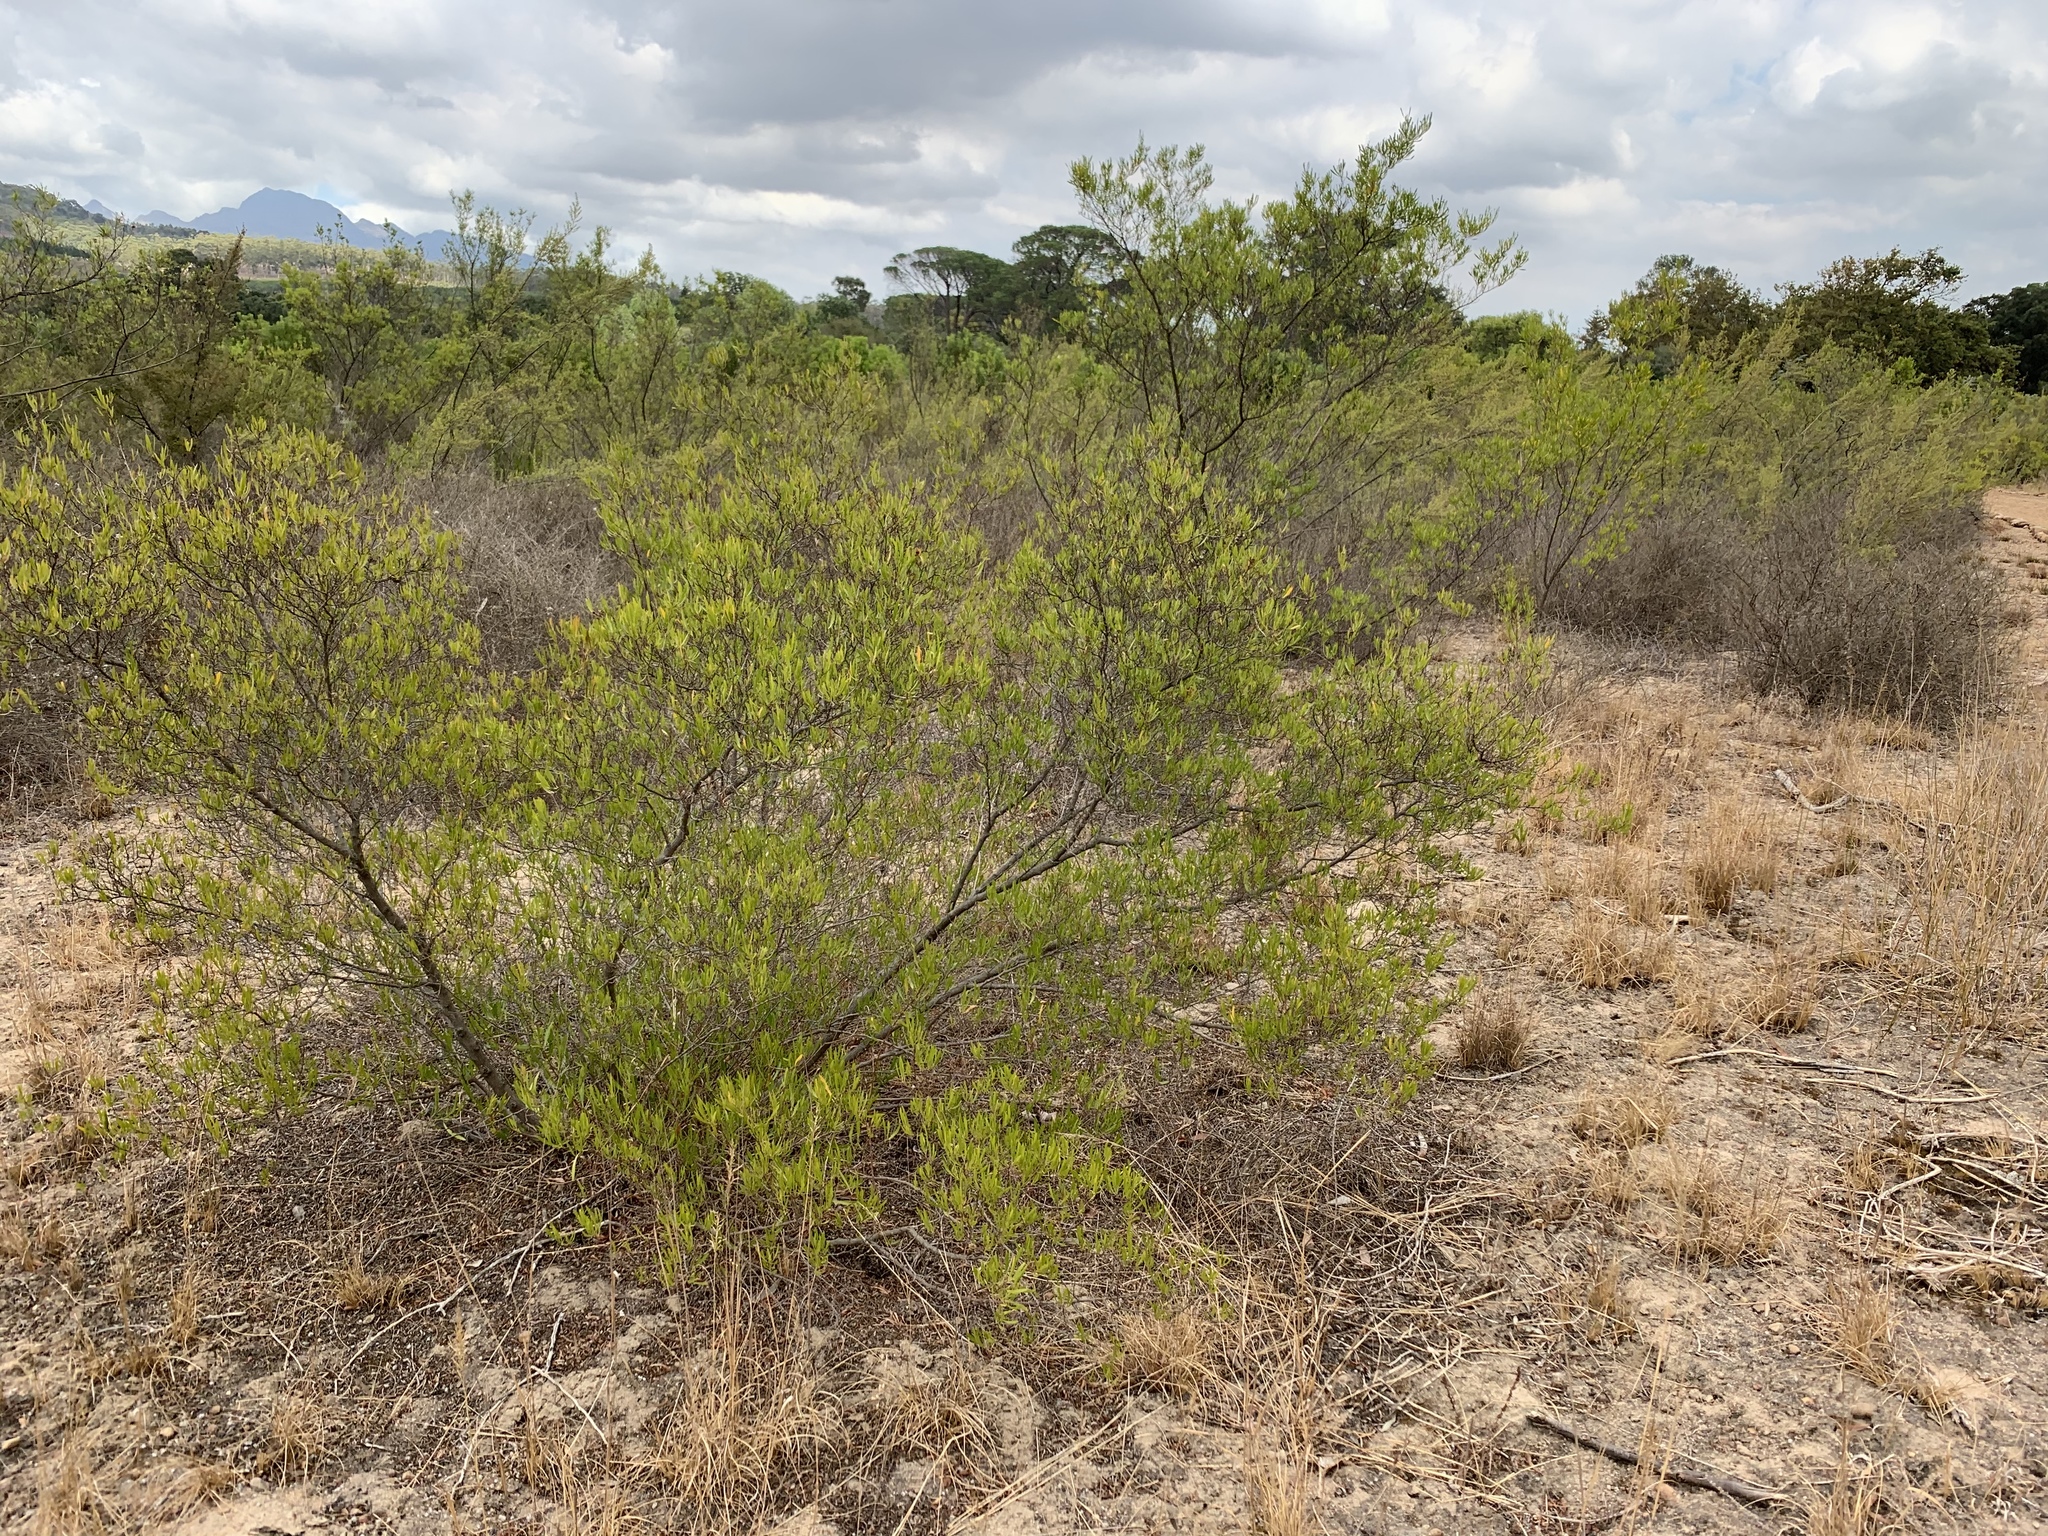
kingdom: Plantae
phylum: Tracheophyta
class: Magnoliopsida
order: Sapindales
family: Sapindaceae
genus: Dodonaea
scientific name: Dodonaea viscosa
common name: Hopbush
